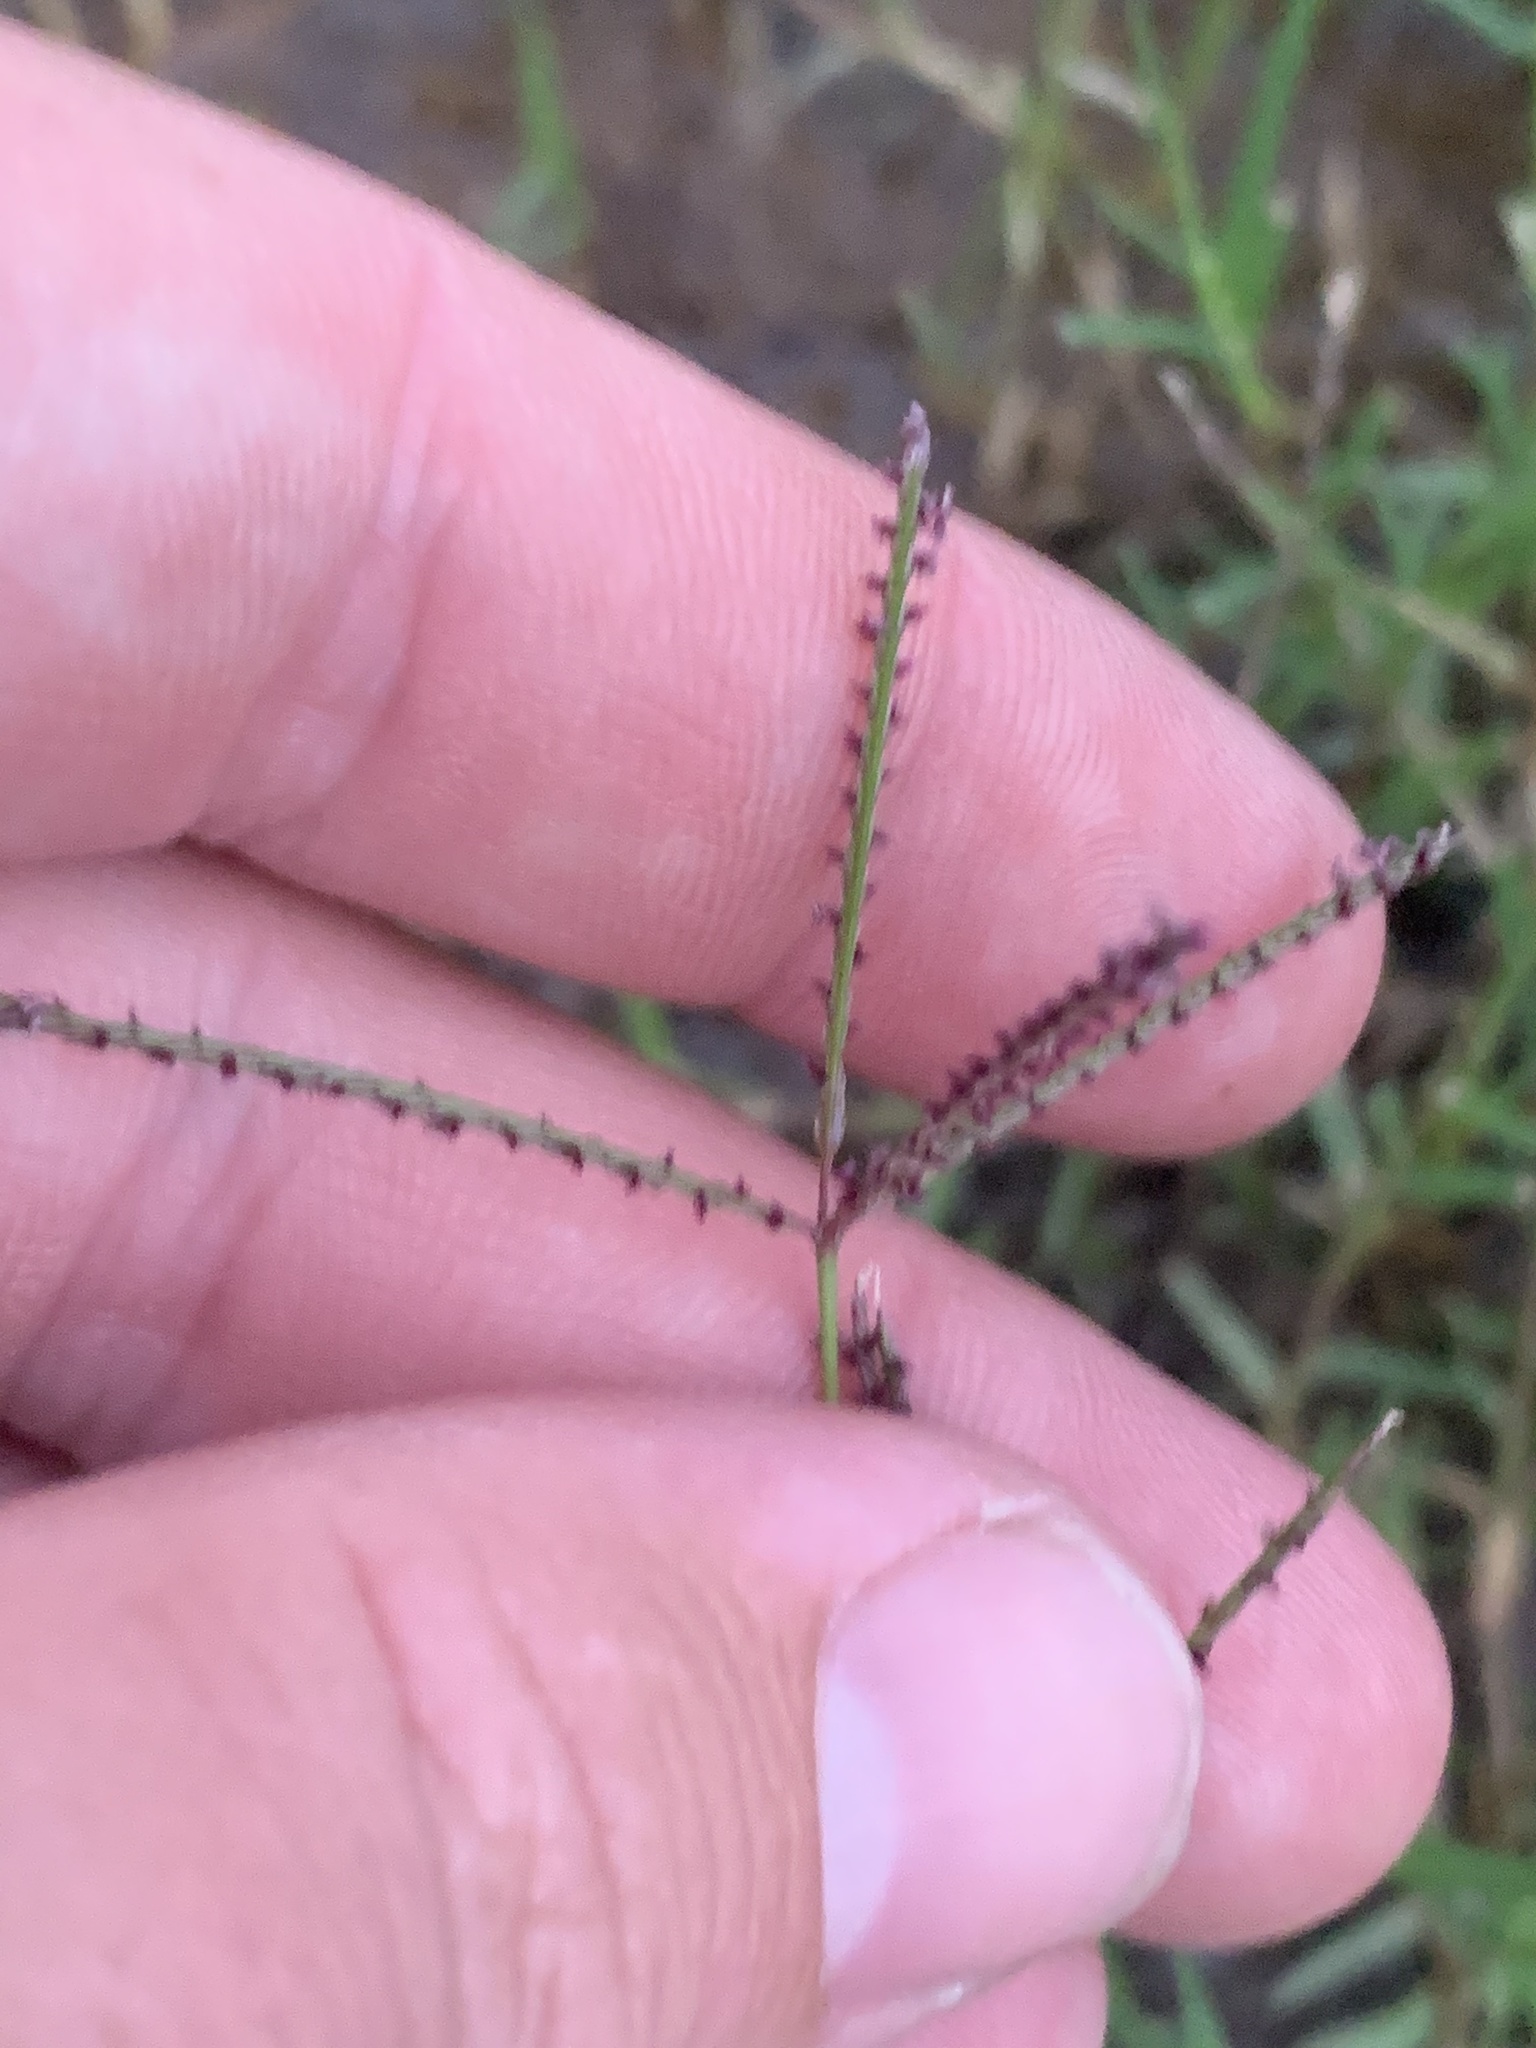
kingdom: Plantae
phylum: Tracheophyta
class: Liliopsida
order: Poales
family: Poaceae
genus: Cynodon
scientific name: Cynodon dactylon
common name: Bermuda grass
